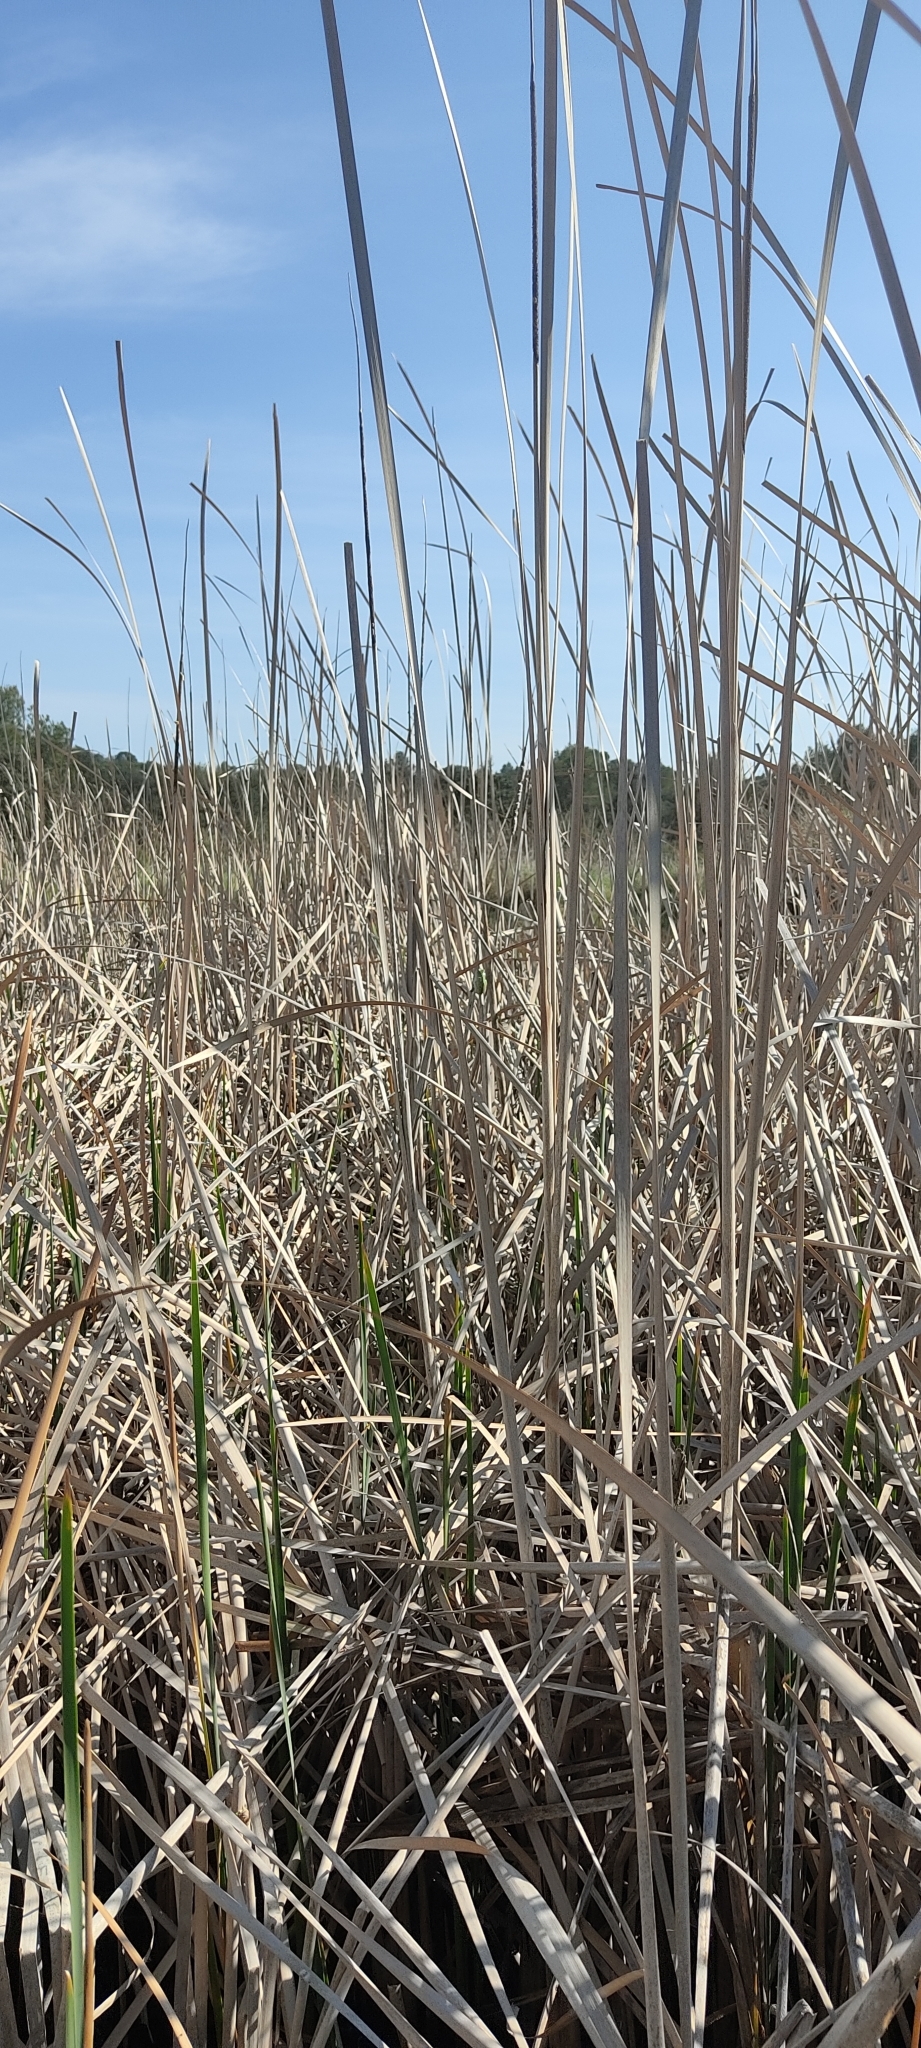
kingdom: Animalia
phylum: Chordata
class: Amphibia
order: Anura
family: Hylidae
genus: Hyla
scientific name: Hyla meridionalis
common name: Stripeless tree frog
